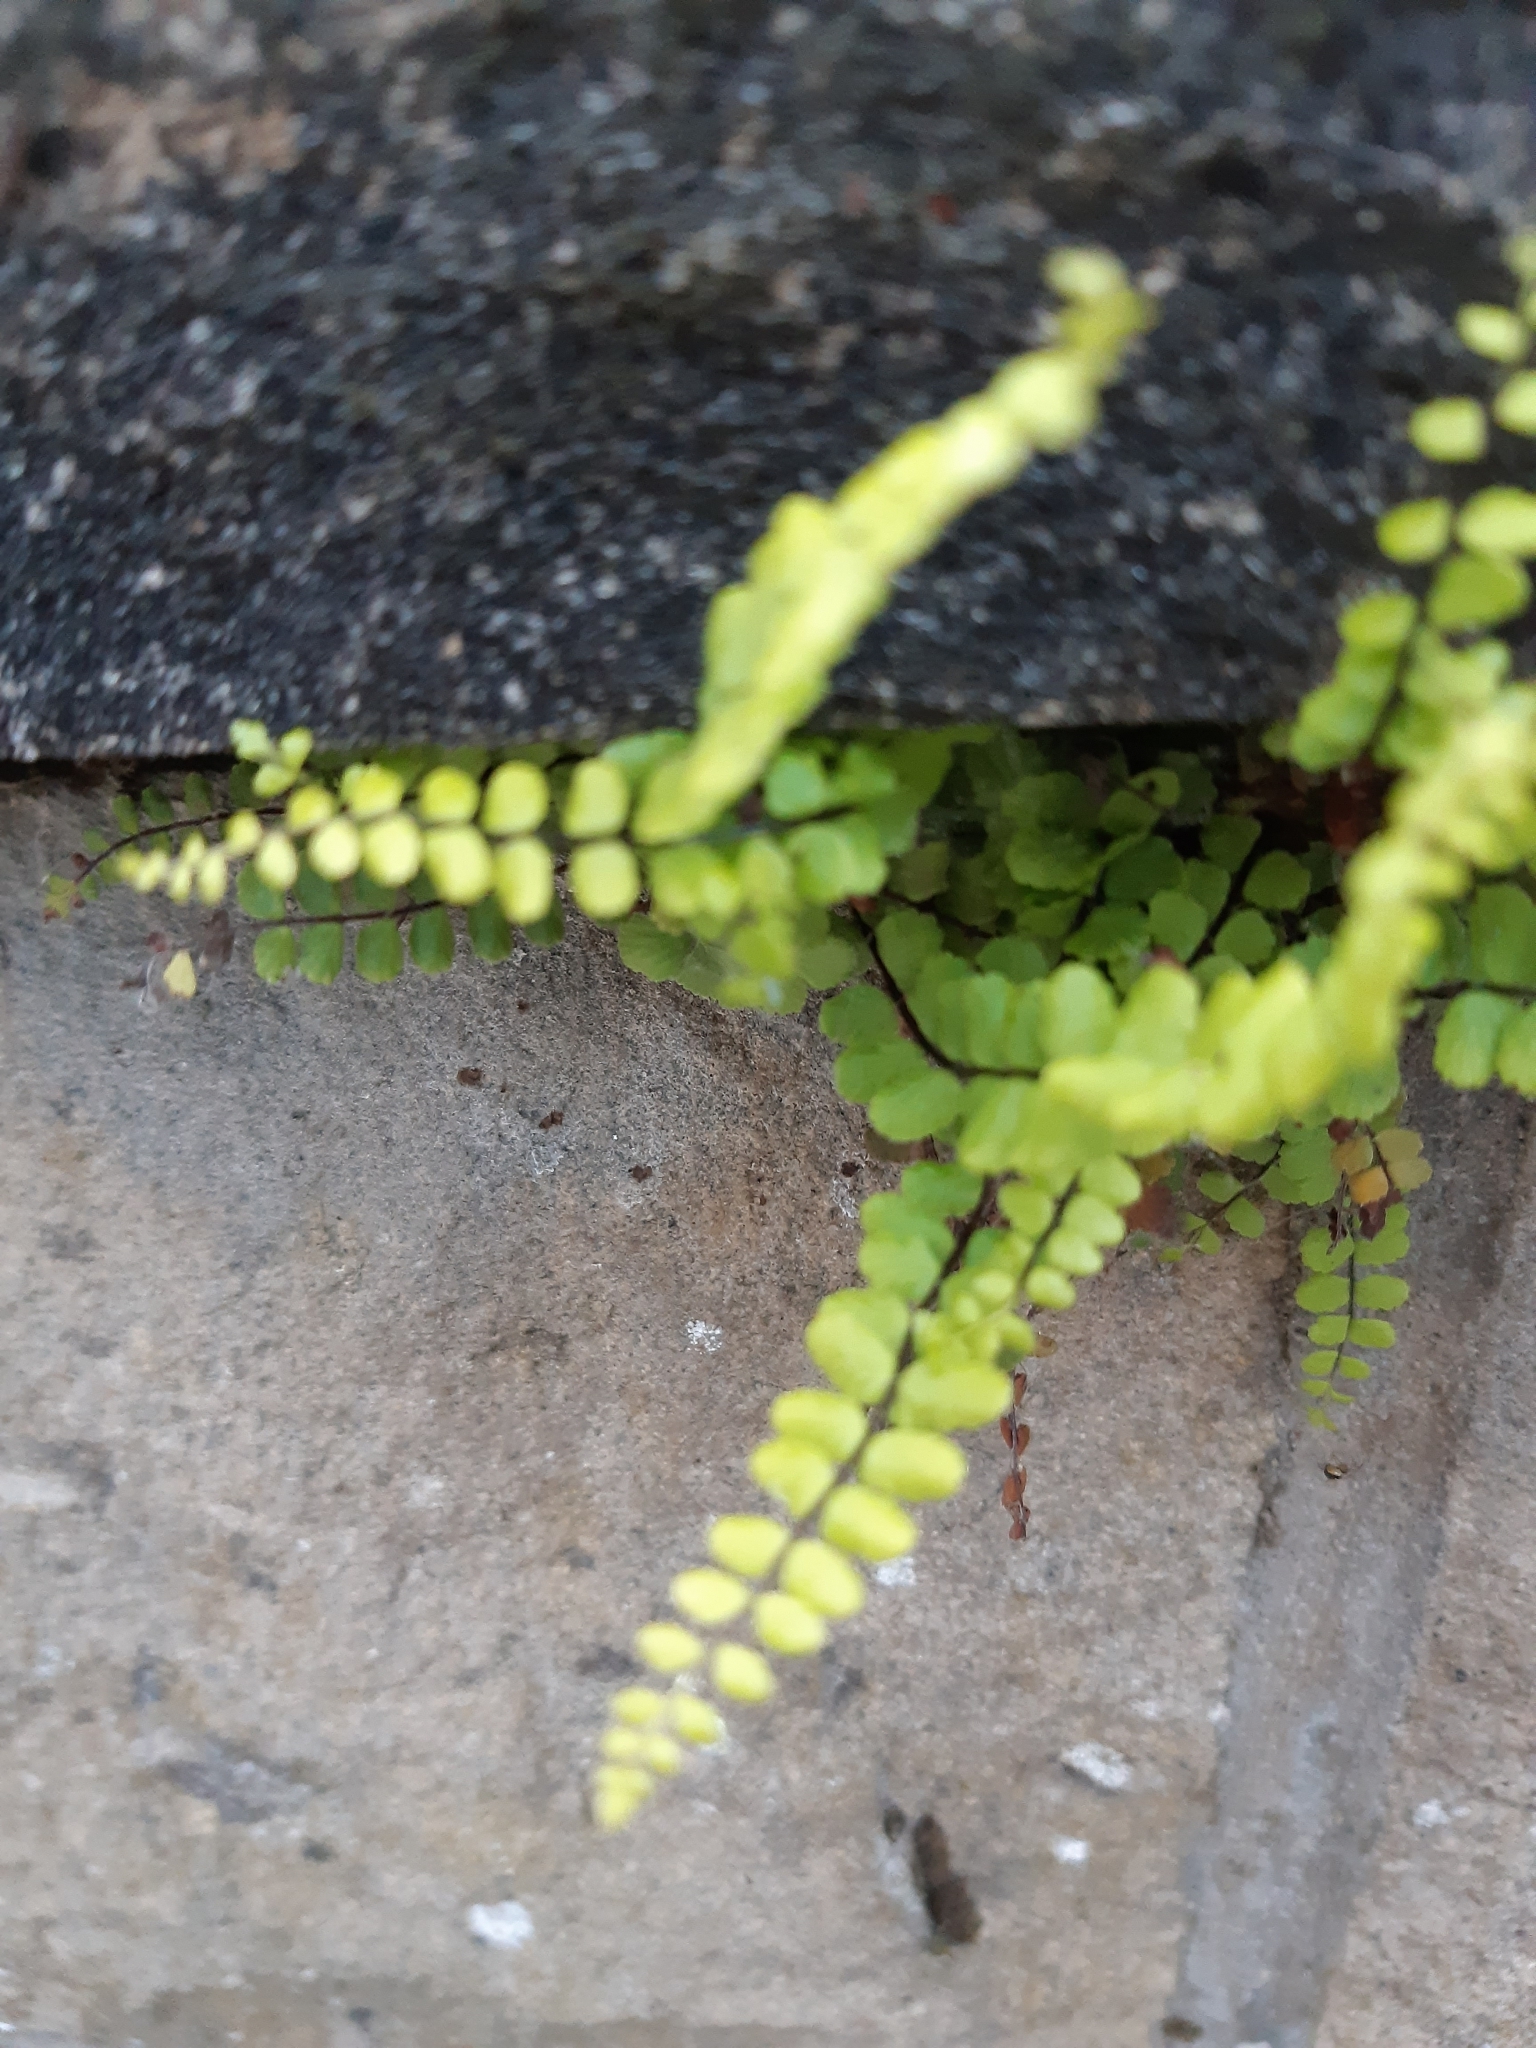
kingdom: Plantae
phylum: Tracheophyta
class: Polypodiopsida
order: Polypodiales
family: Aspleniaceae
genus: Asplenium
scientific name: Asplenium trichomanes
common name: Maidenhair spleenwort
